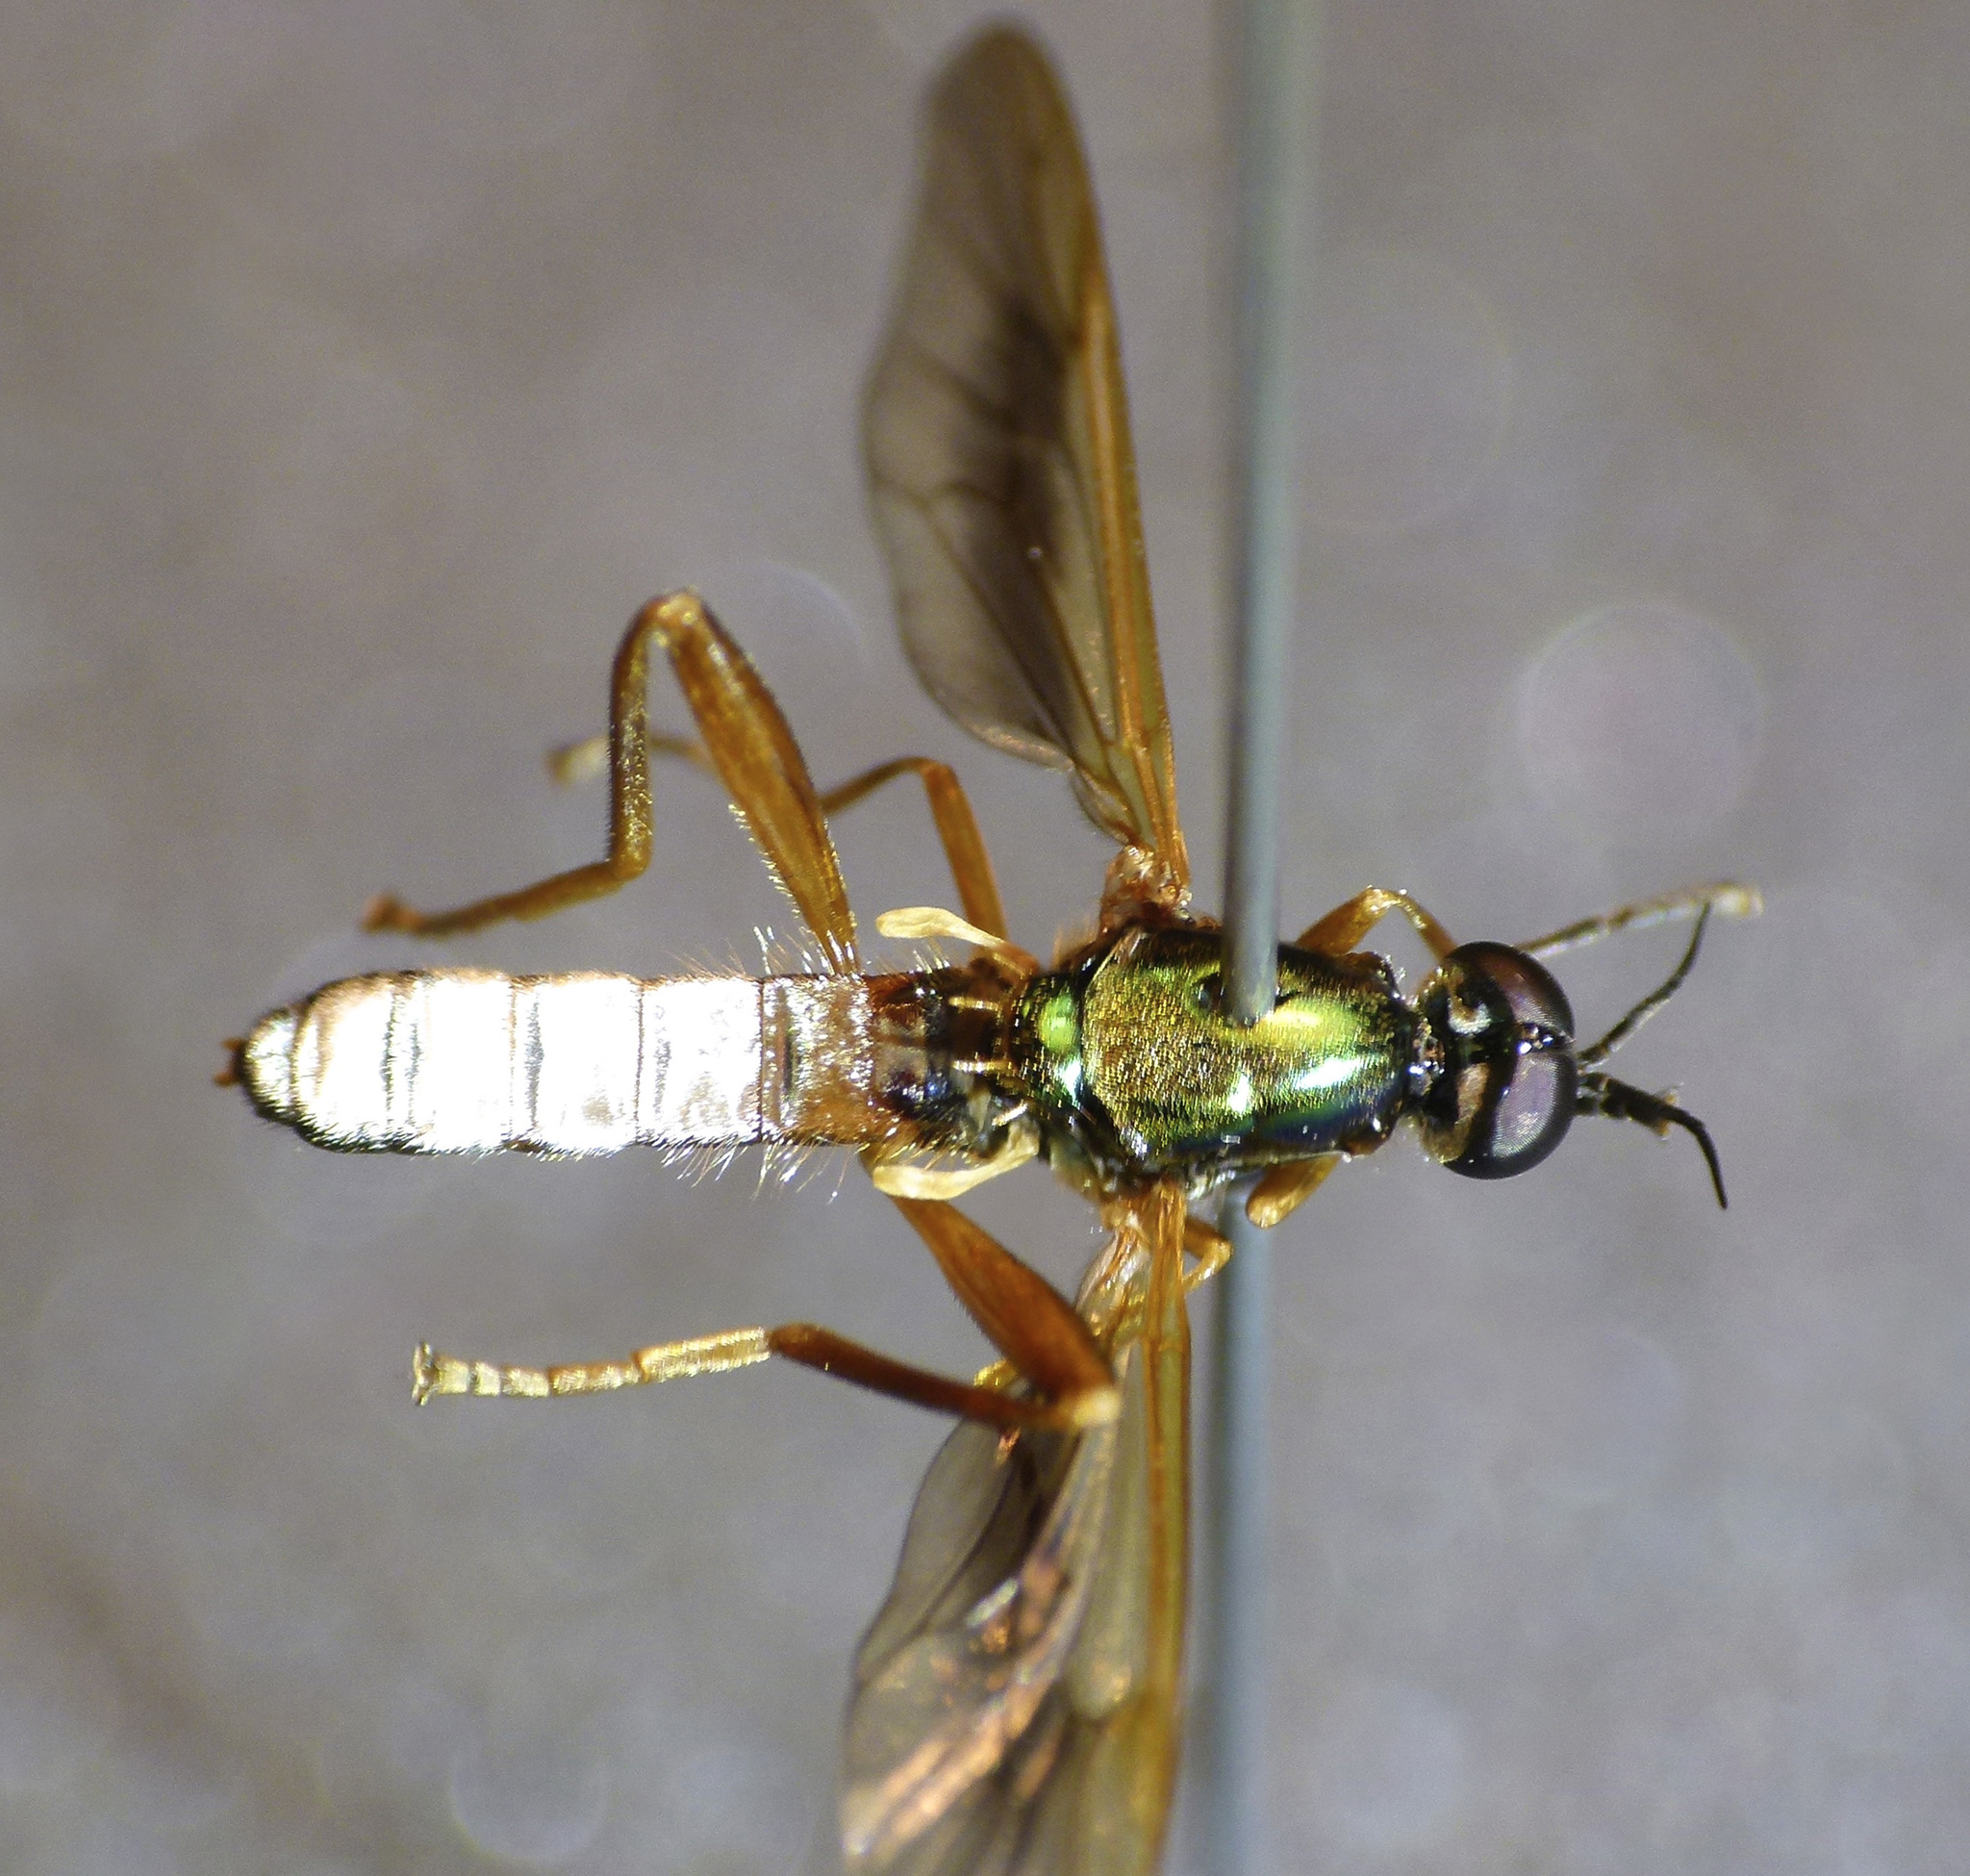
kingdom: Animalia
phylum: Arthropoda
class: Insecta
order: Diptera
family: Stratiomyidae
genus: Benhamyia
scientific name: Benhamyia alpina
